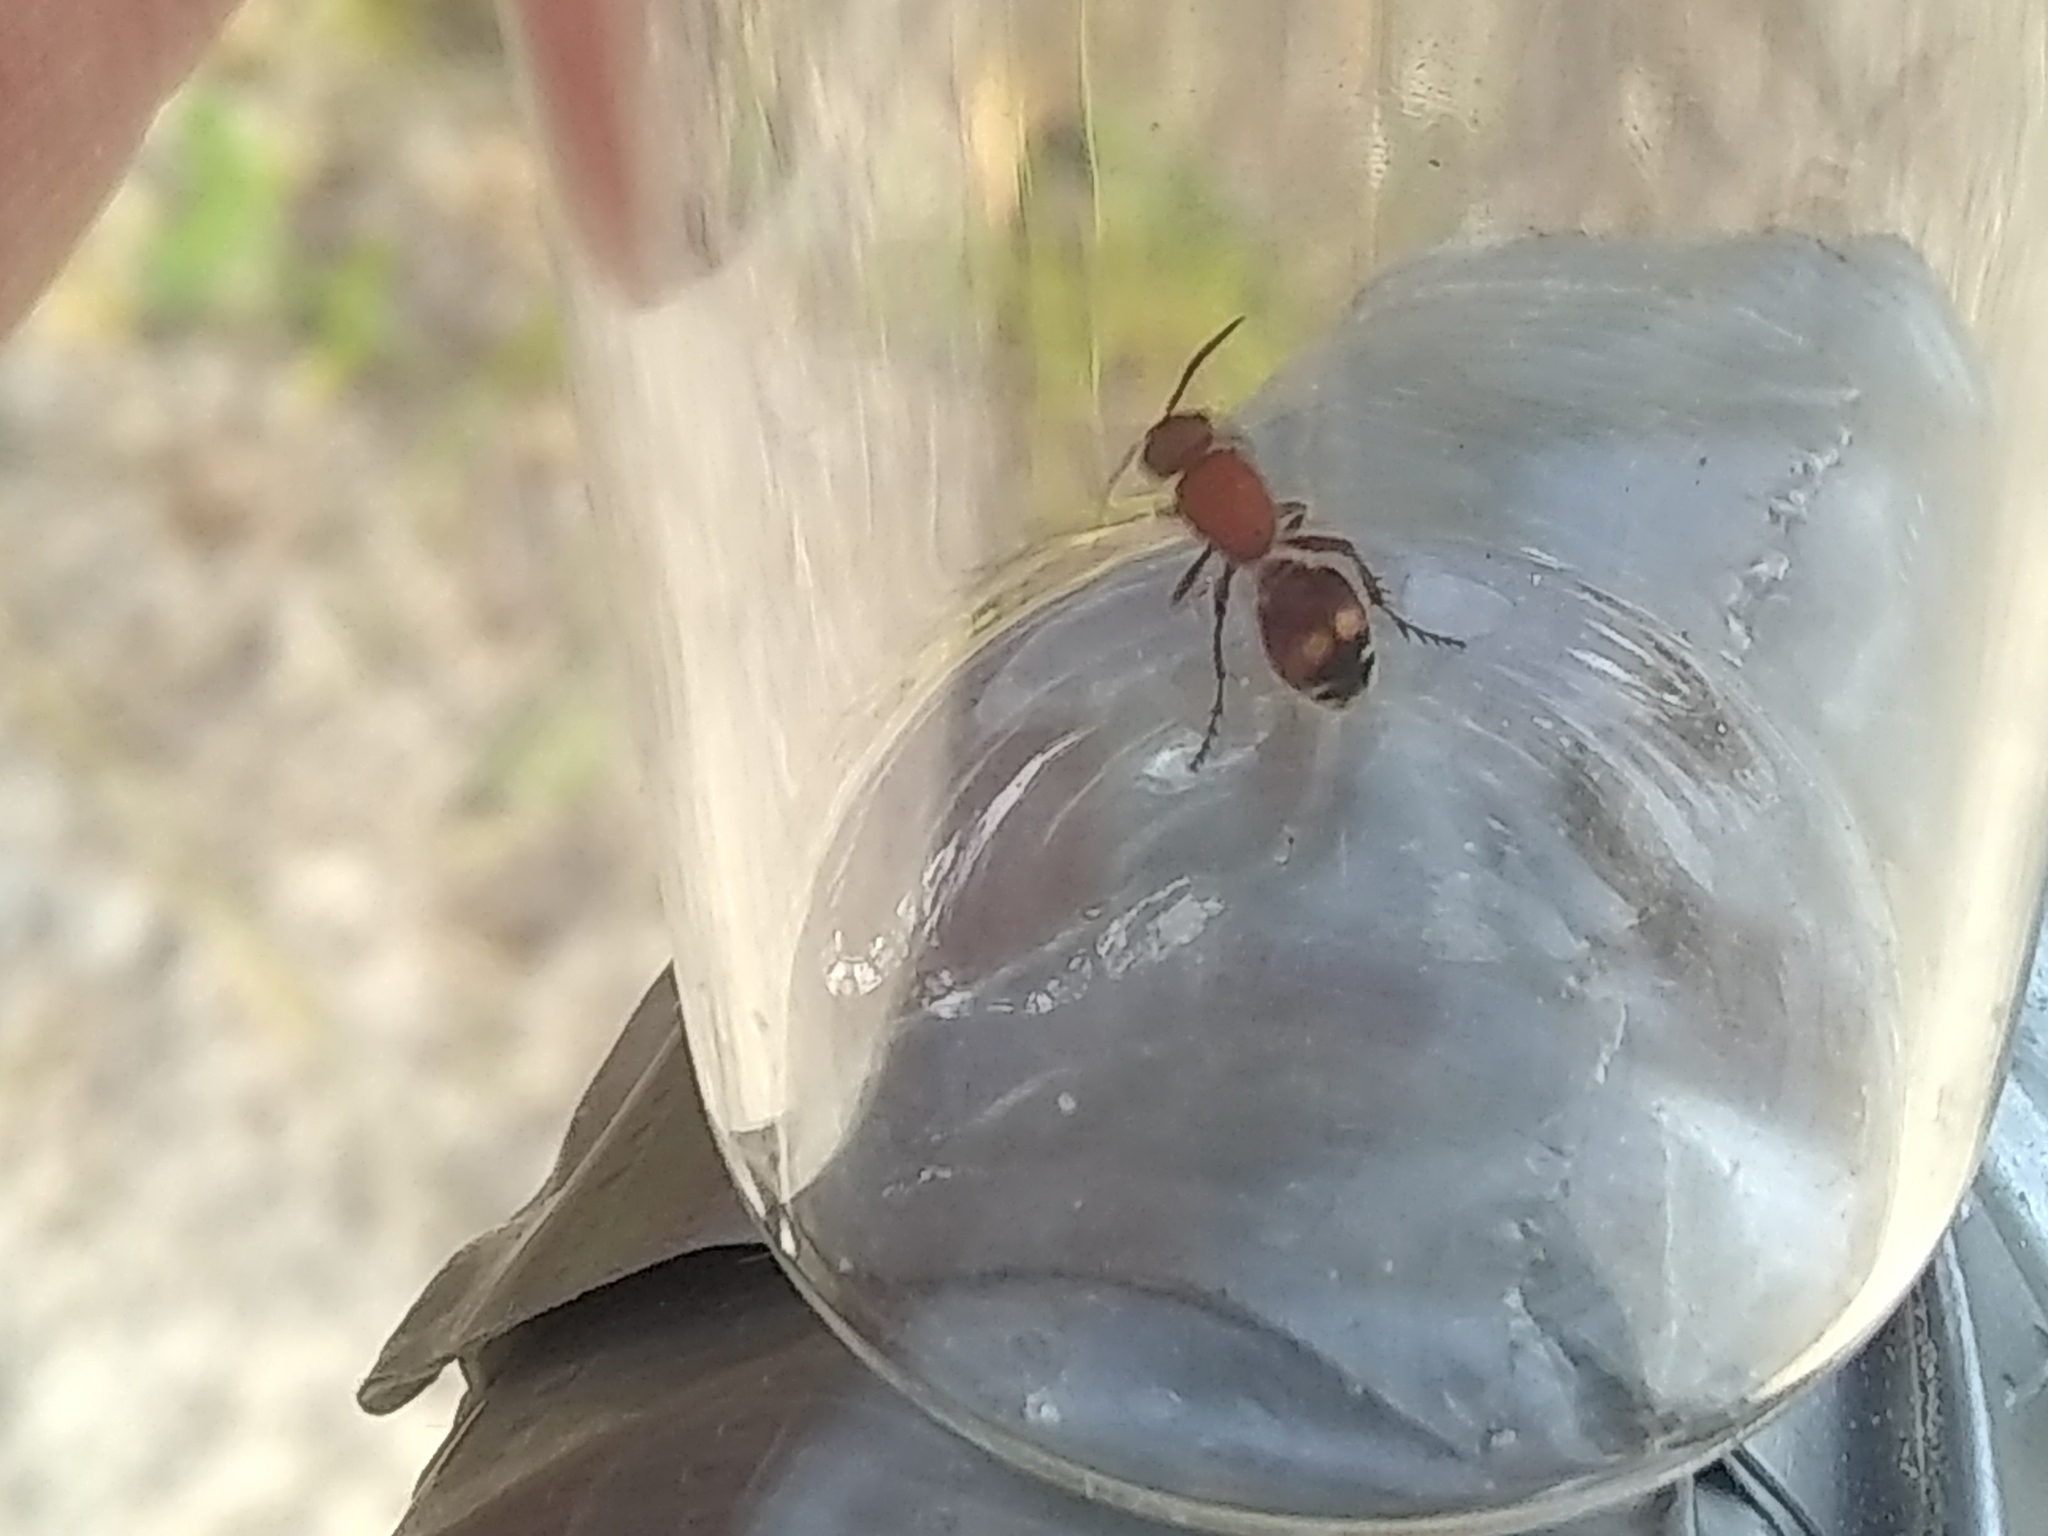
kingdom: Animalia
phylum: Arthropoda
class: Insecta
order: Hymenoptera
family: Mutillidae
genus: Dasymutilla
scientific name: Dasymutilla
